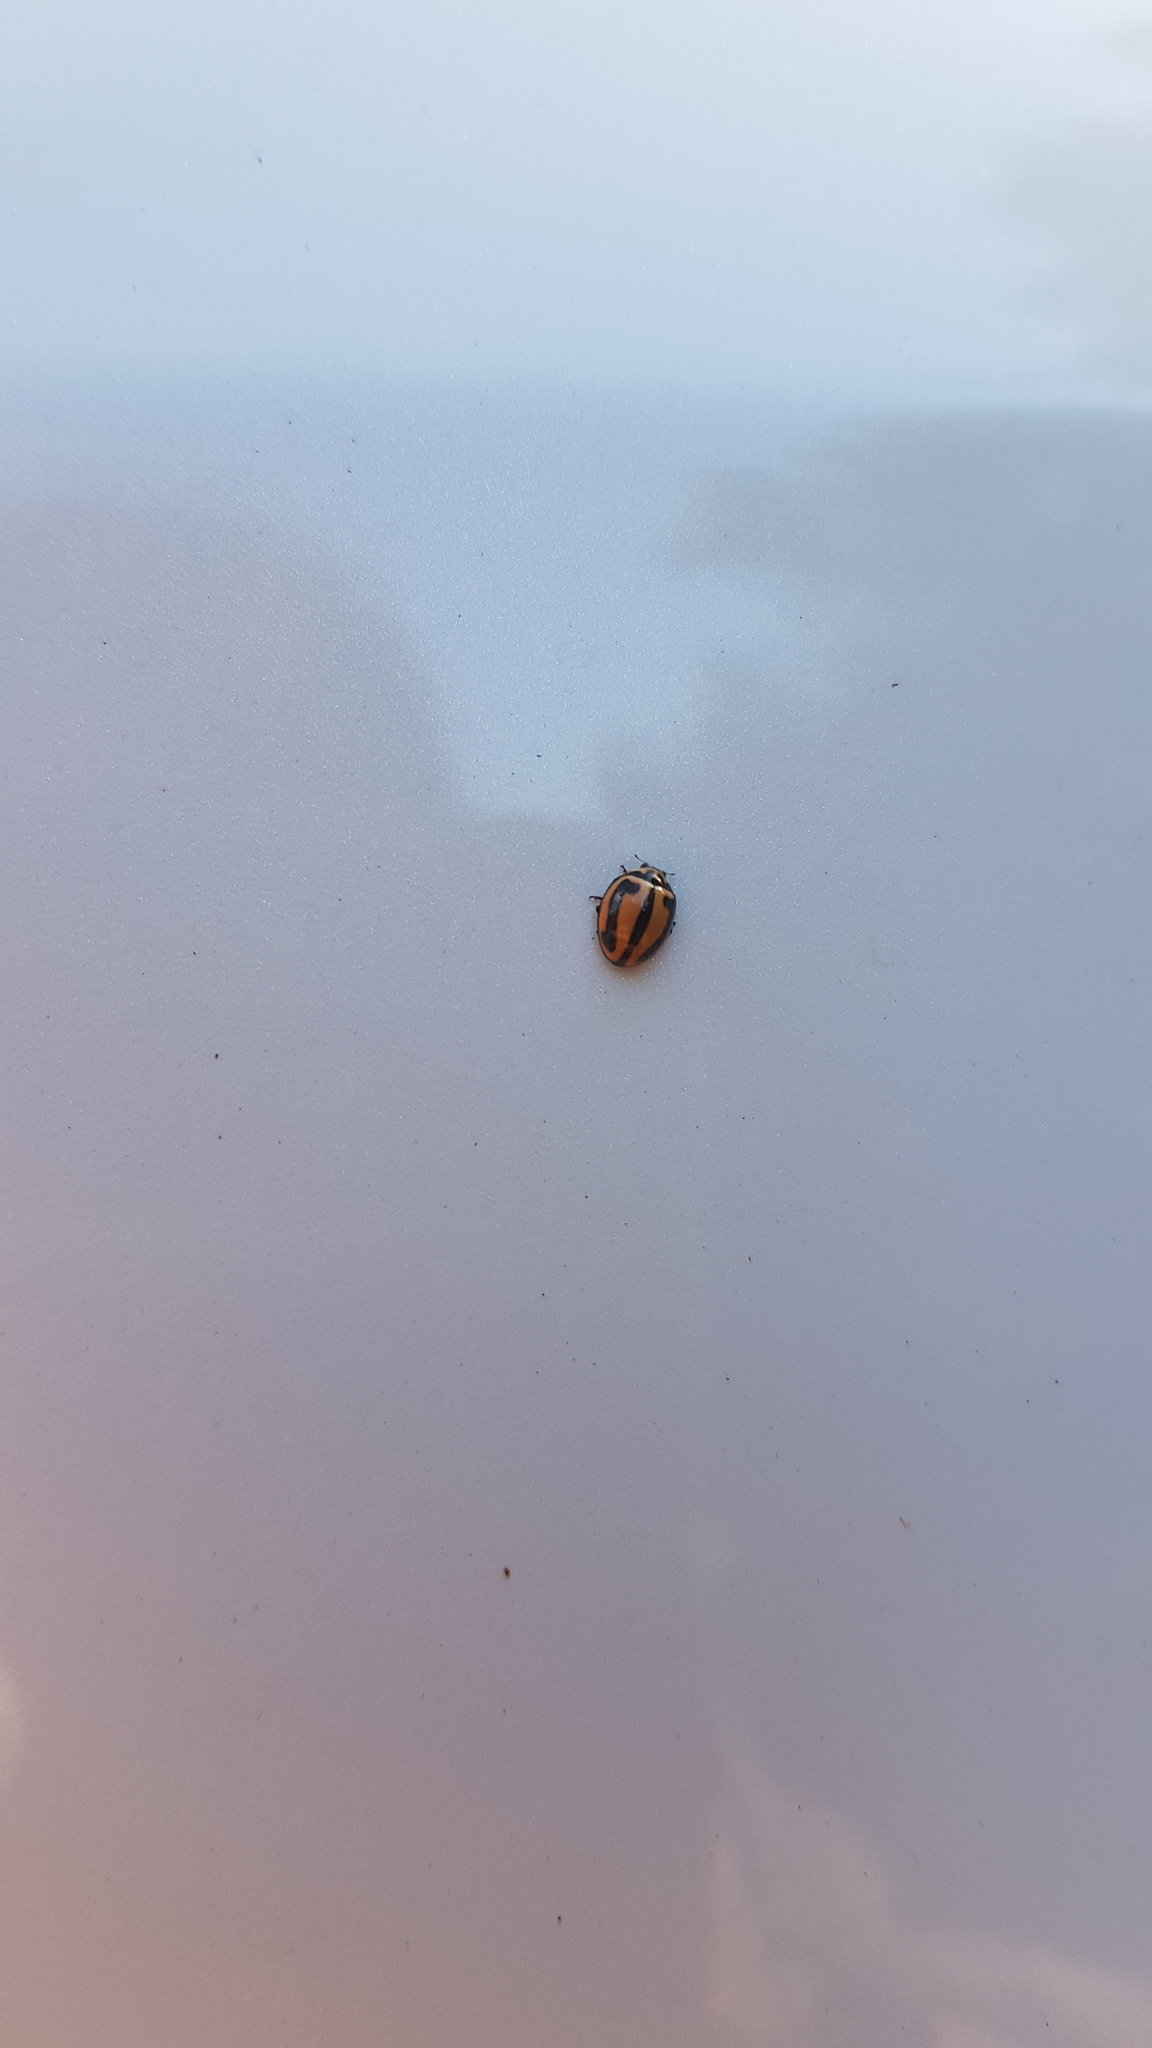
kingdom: Animalia
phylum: Arthropoda
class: Insecta
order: Coleoptera
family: Coccinellidae
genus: Micraspis
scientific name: Micraspis frenata
